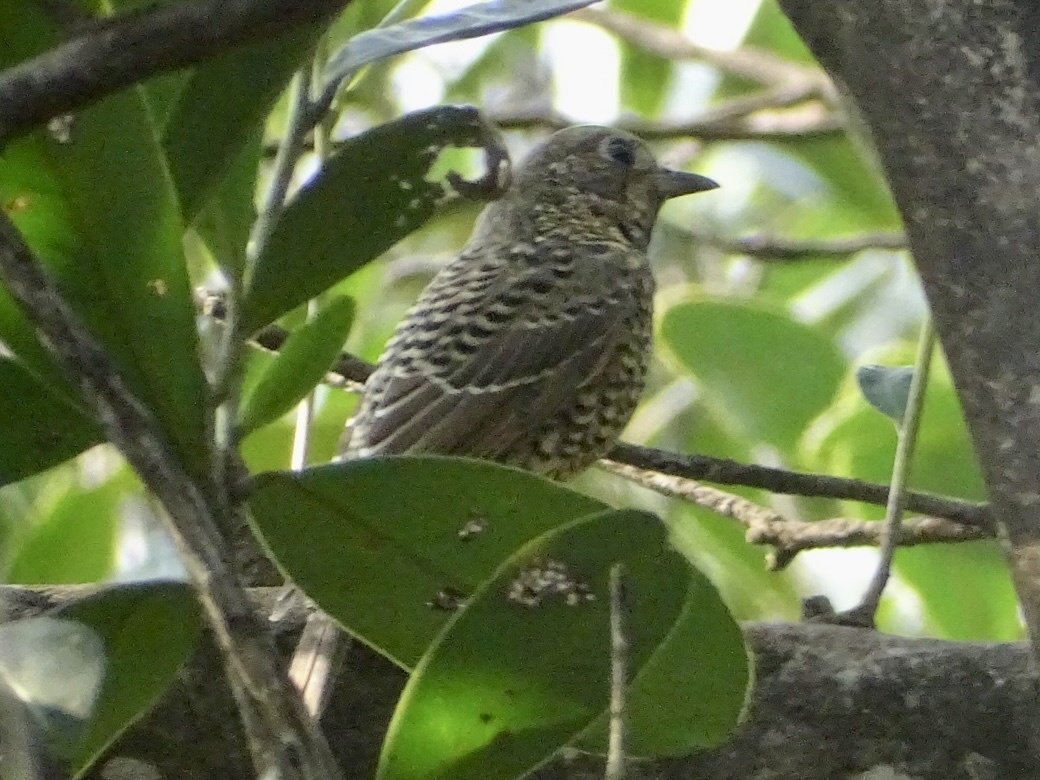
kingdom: Animalia
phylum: Chordata
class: Aves
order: Passeriformes
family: Muscicapidae
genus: Monticola
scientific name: Monticola gularis
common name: White-throated rock thrush
